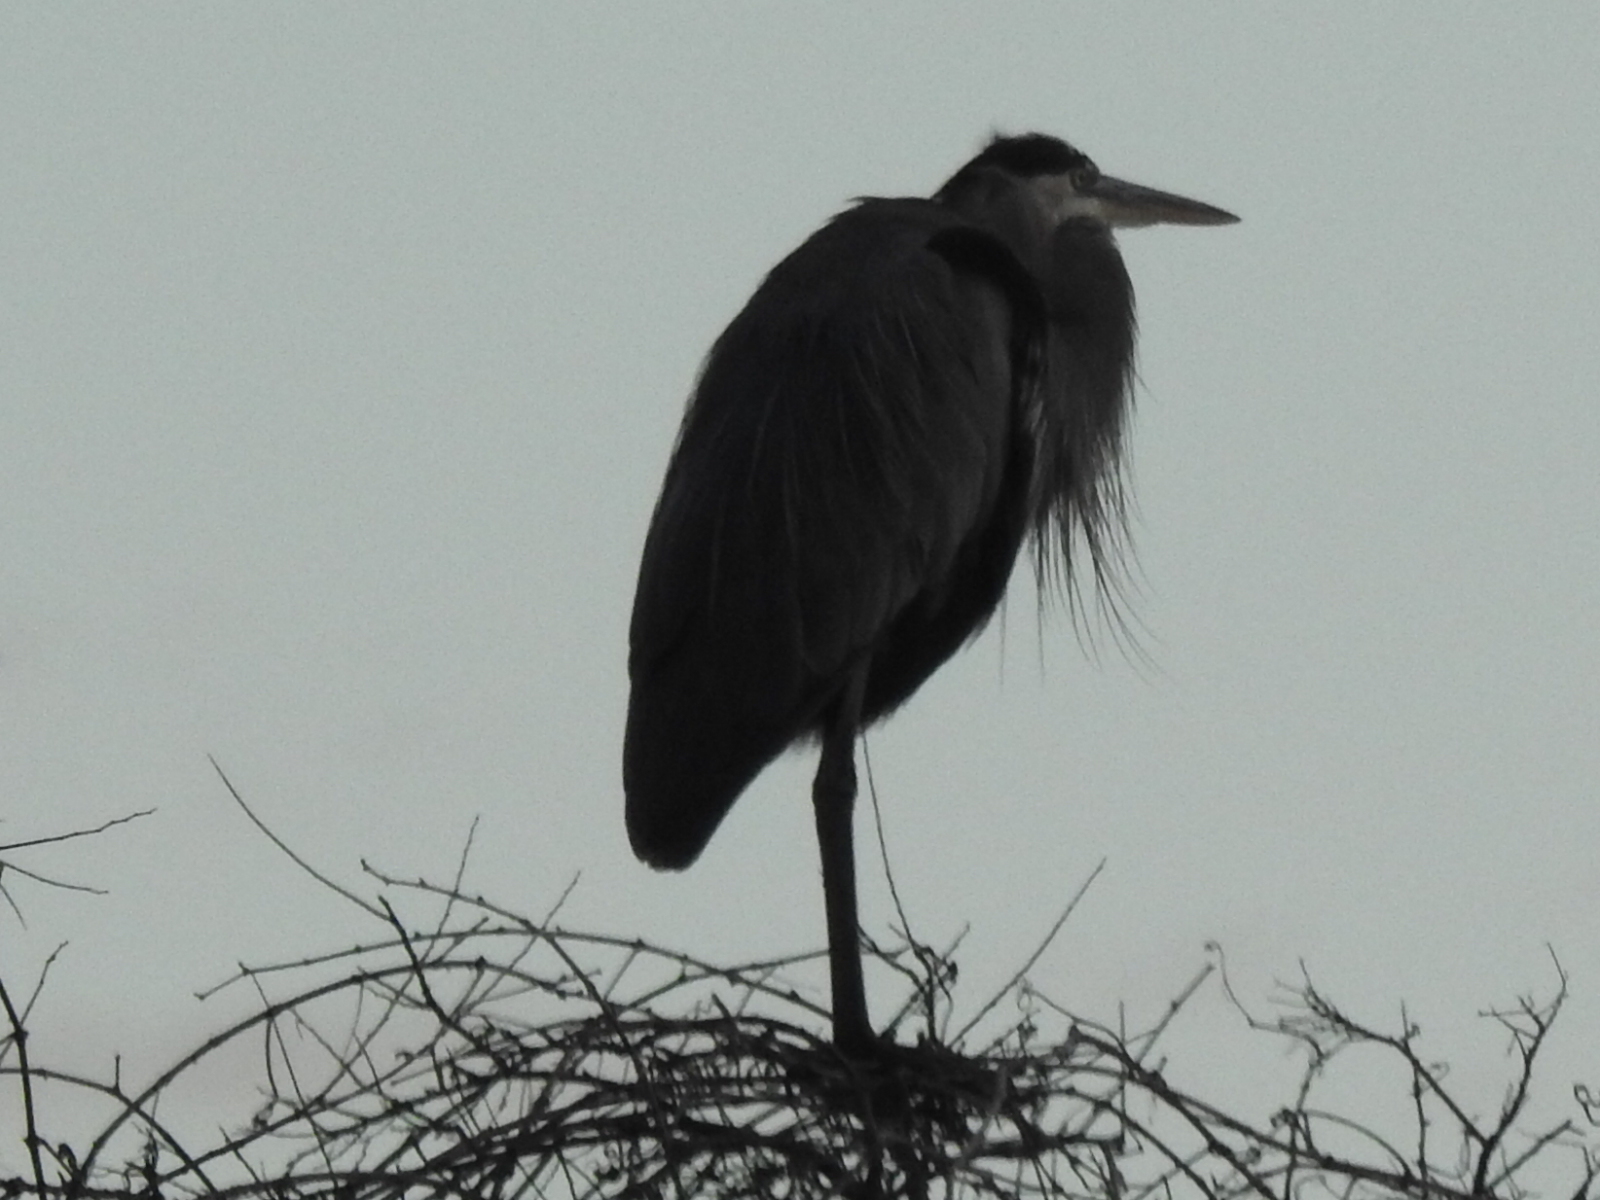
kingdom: Animalia
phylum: Chordata
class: Aves
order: Pelecaniformes
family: Ardeidae
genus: Ardea
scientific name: Ardea herodias
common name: Great blue heron
